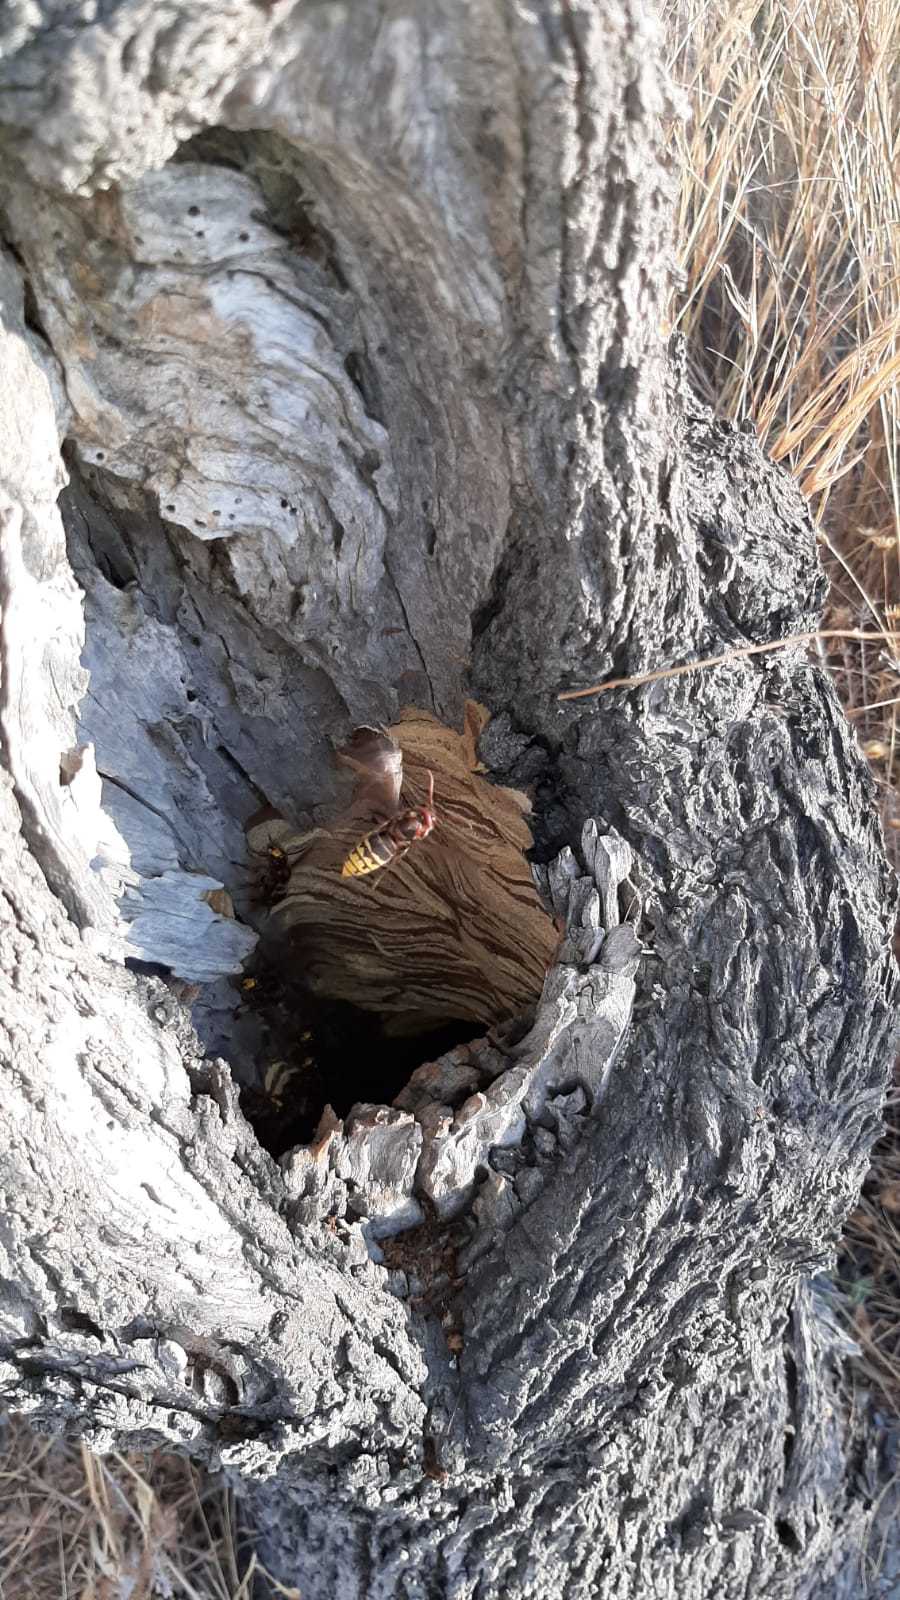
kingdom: Animalia
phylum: Arthropoda
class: Insecta
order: Hymenoptera
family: Vespidae
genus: Vespa
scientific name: Vespa crabro
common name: Hornet
